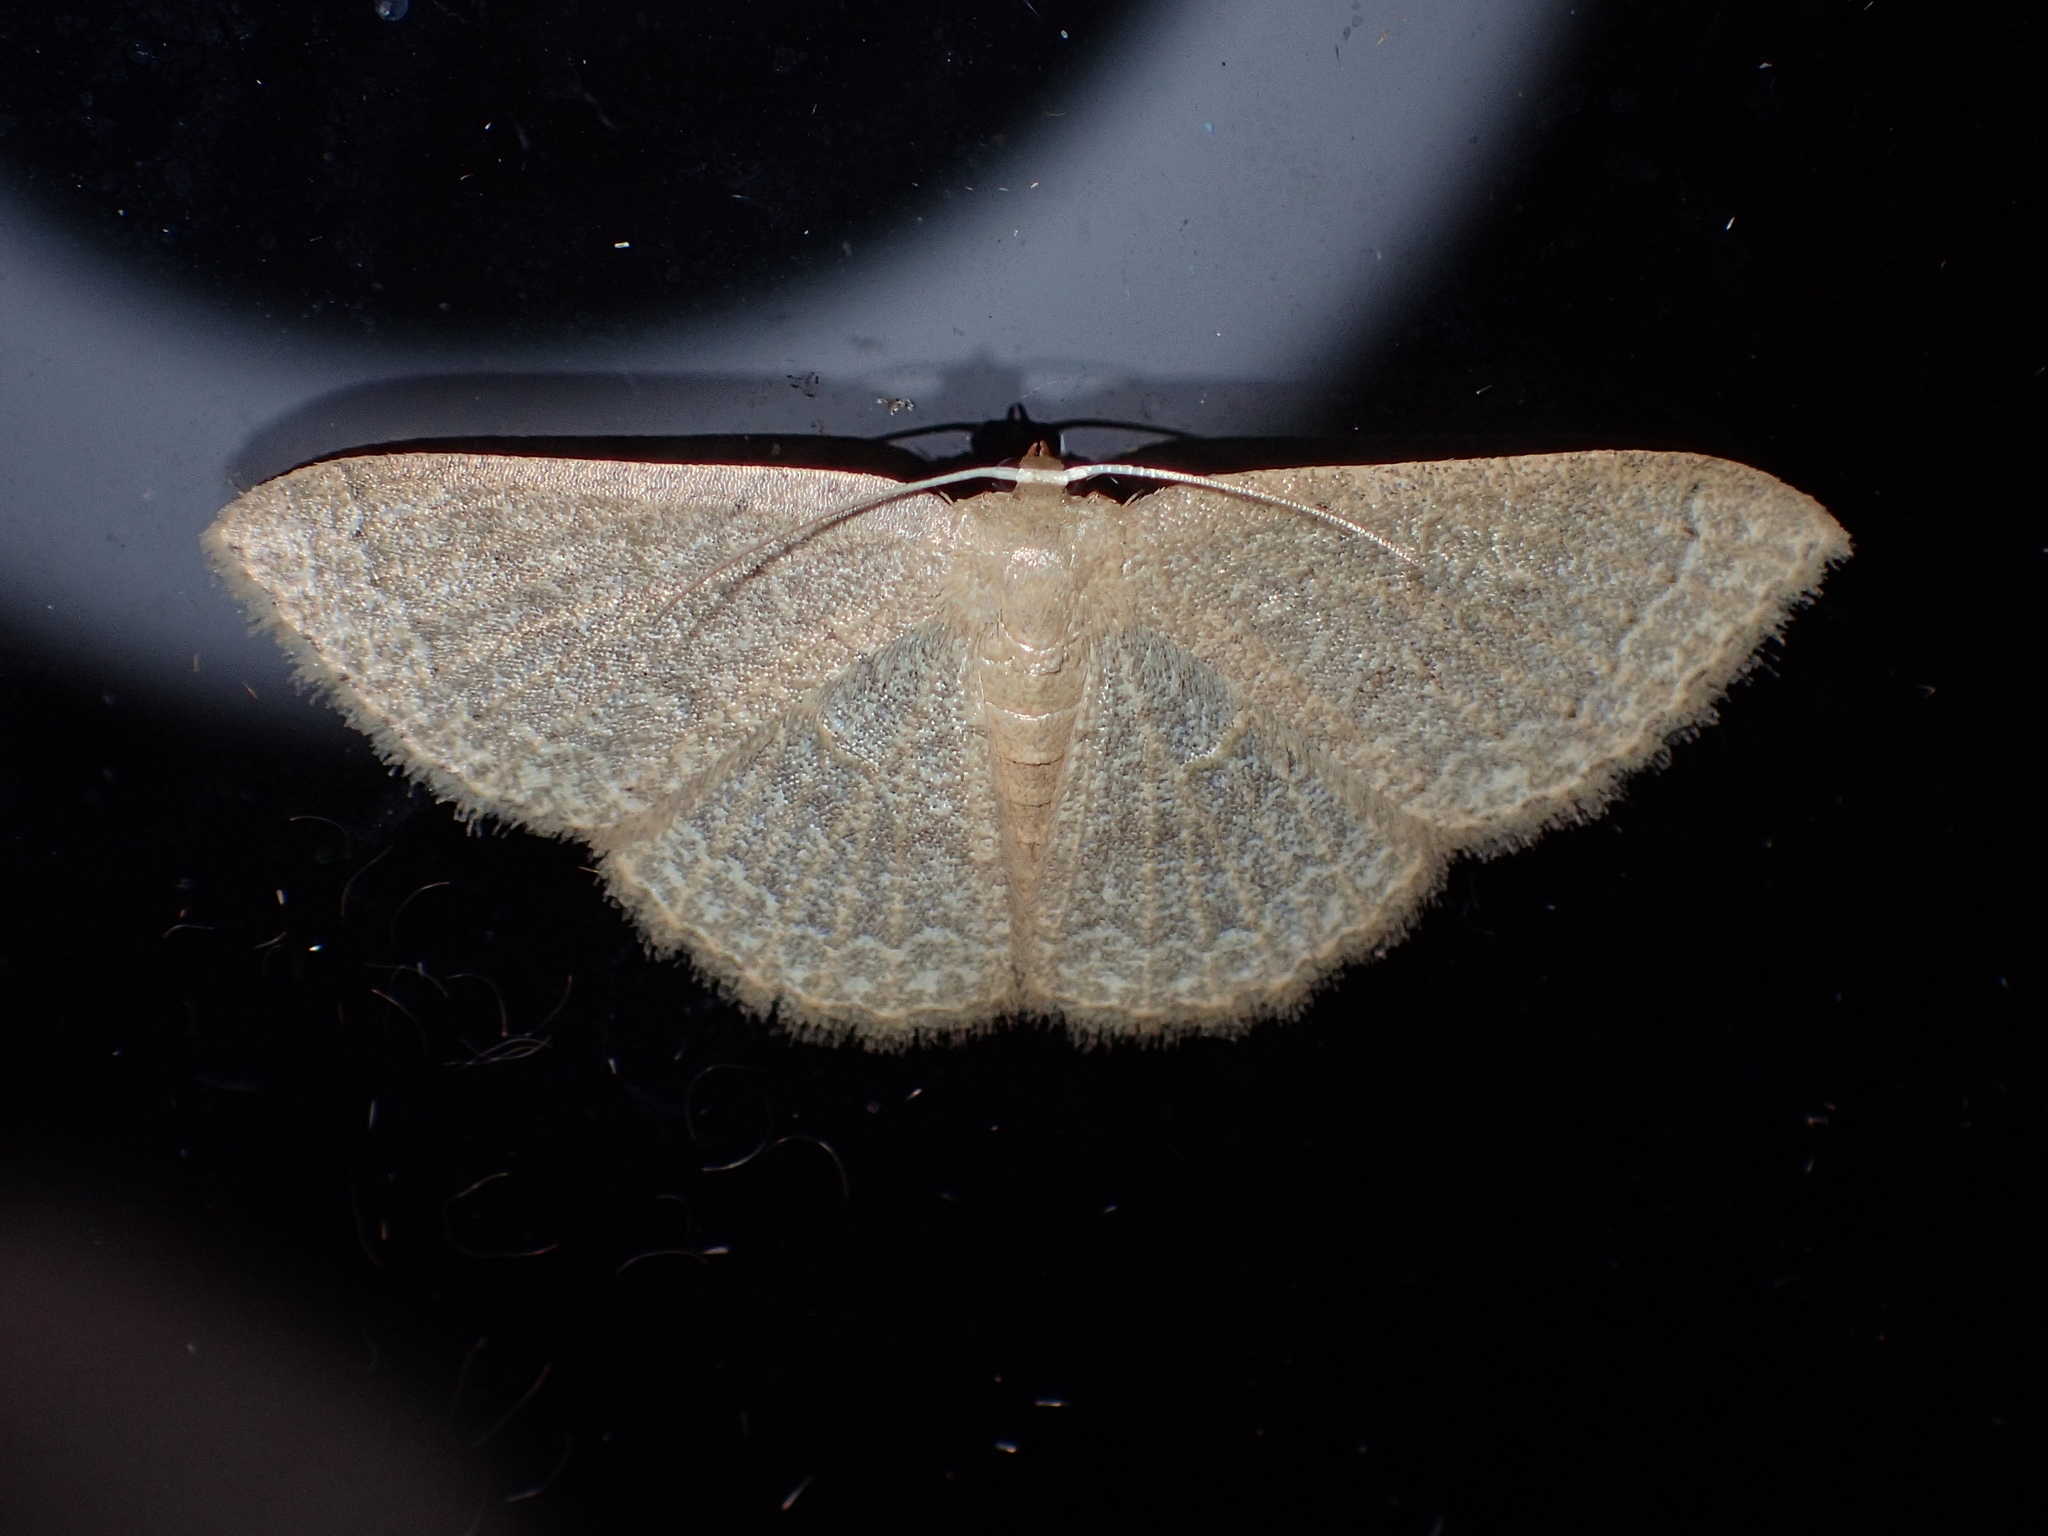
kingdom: Animalia
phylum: Arthropoda
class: Insecta
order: Lepidoptera
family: Geometridae
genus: Pleuroprucha
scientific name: Pleuroprucha insulsaria
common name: Common tan wave
